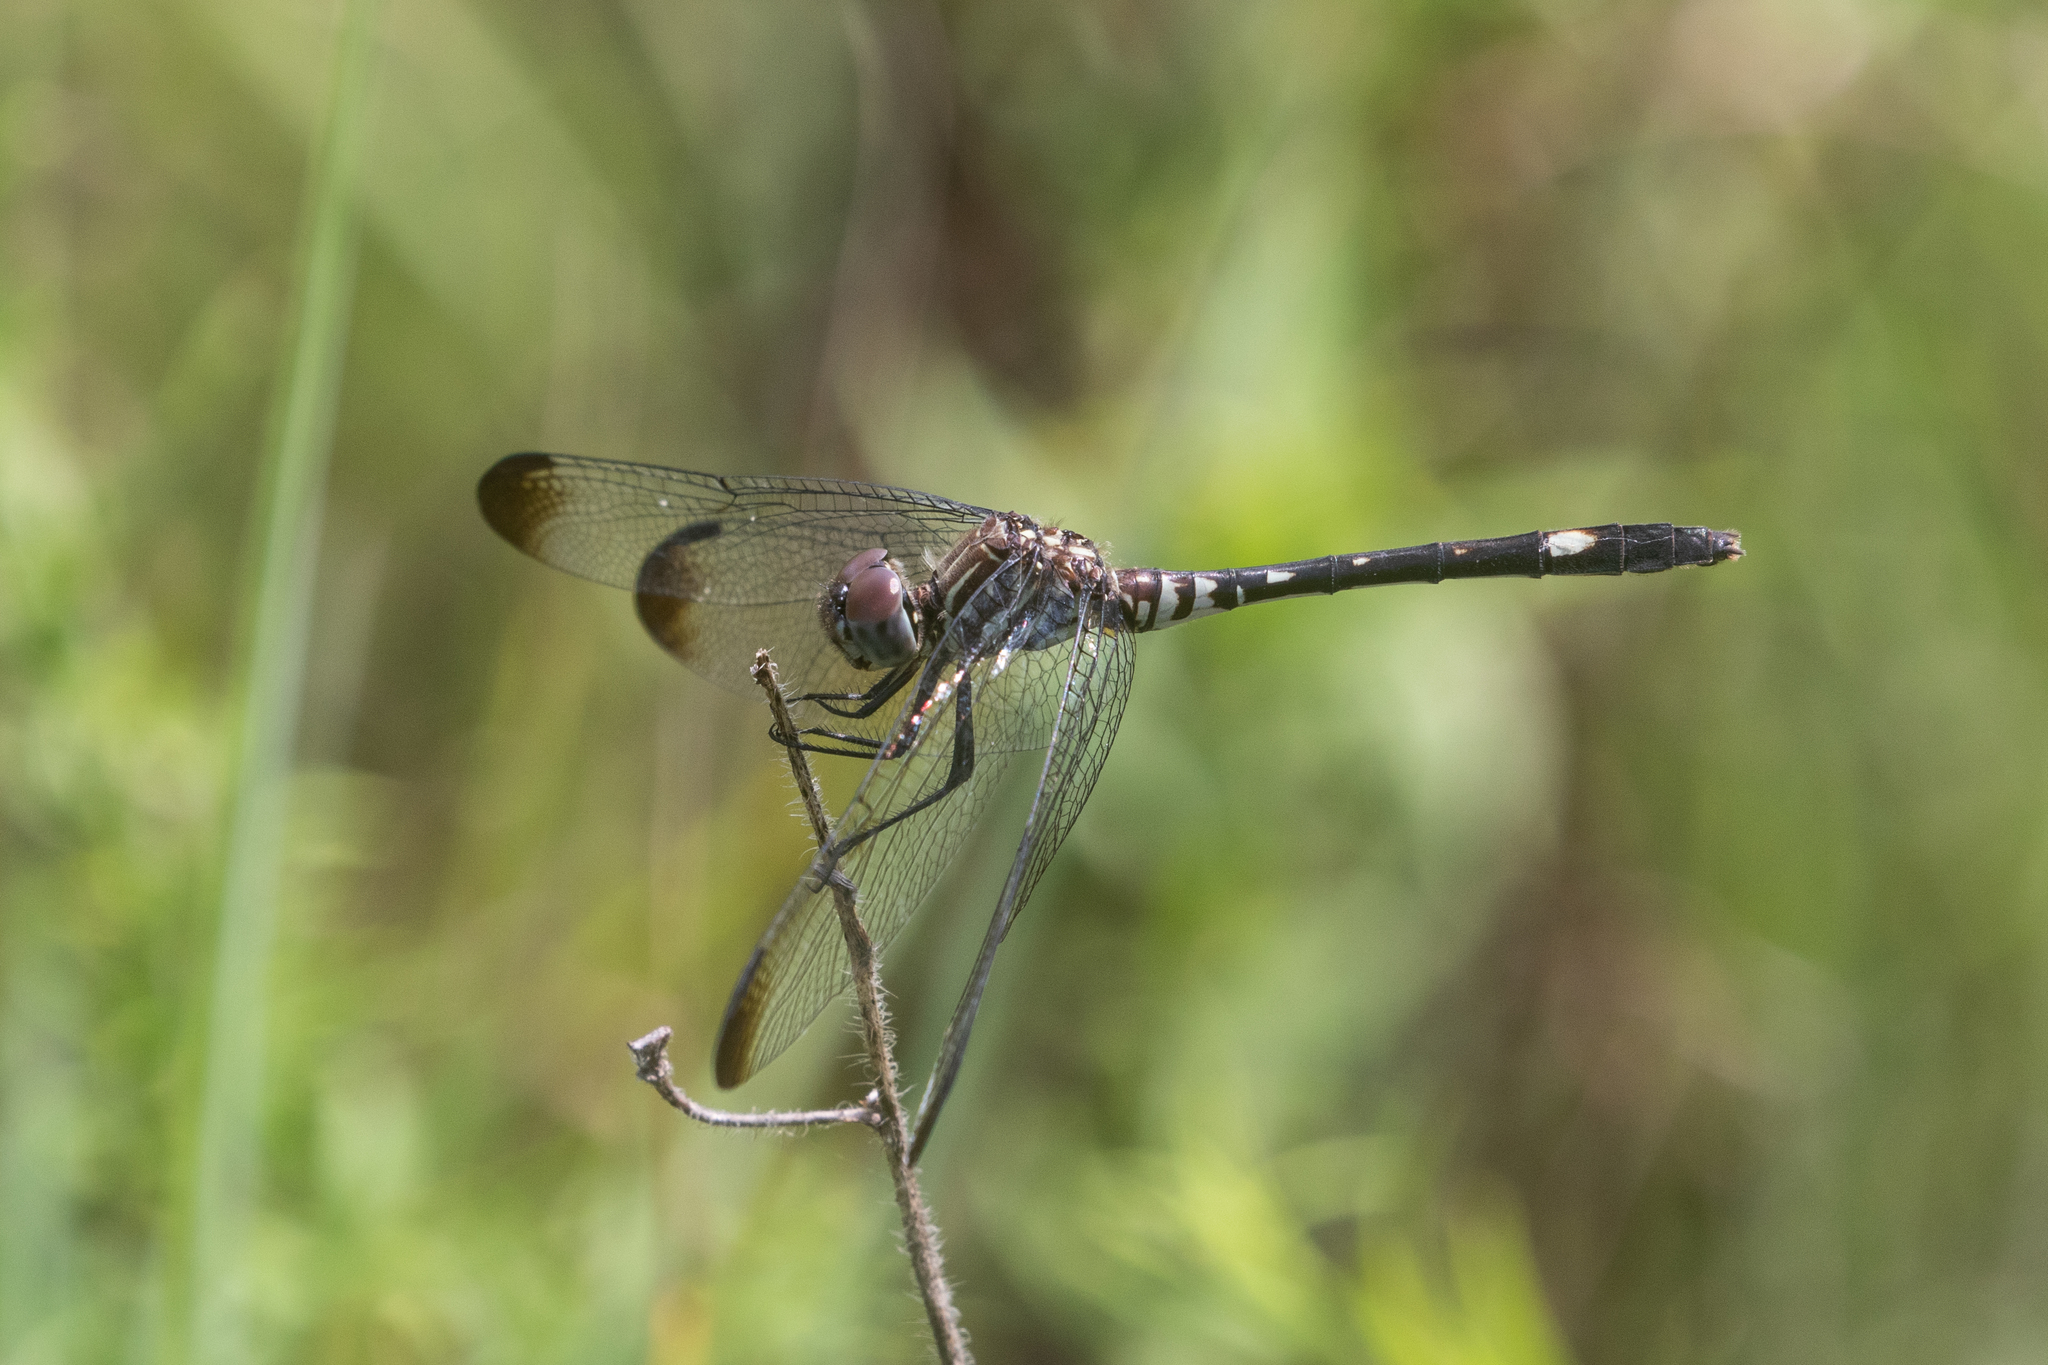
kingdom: Animalia
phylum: Arthropoda
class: Insecta
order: Odonata
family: Libellulidae
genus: Dythemis
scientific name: Dythemis velox
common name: Swift setwing
